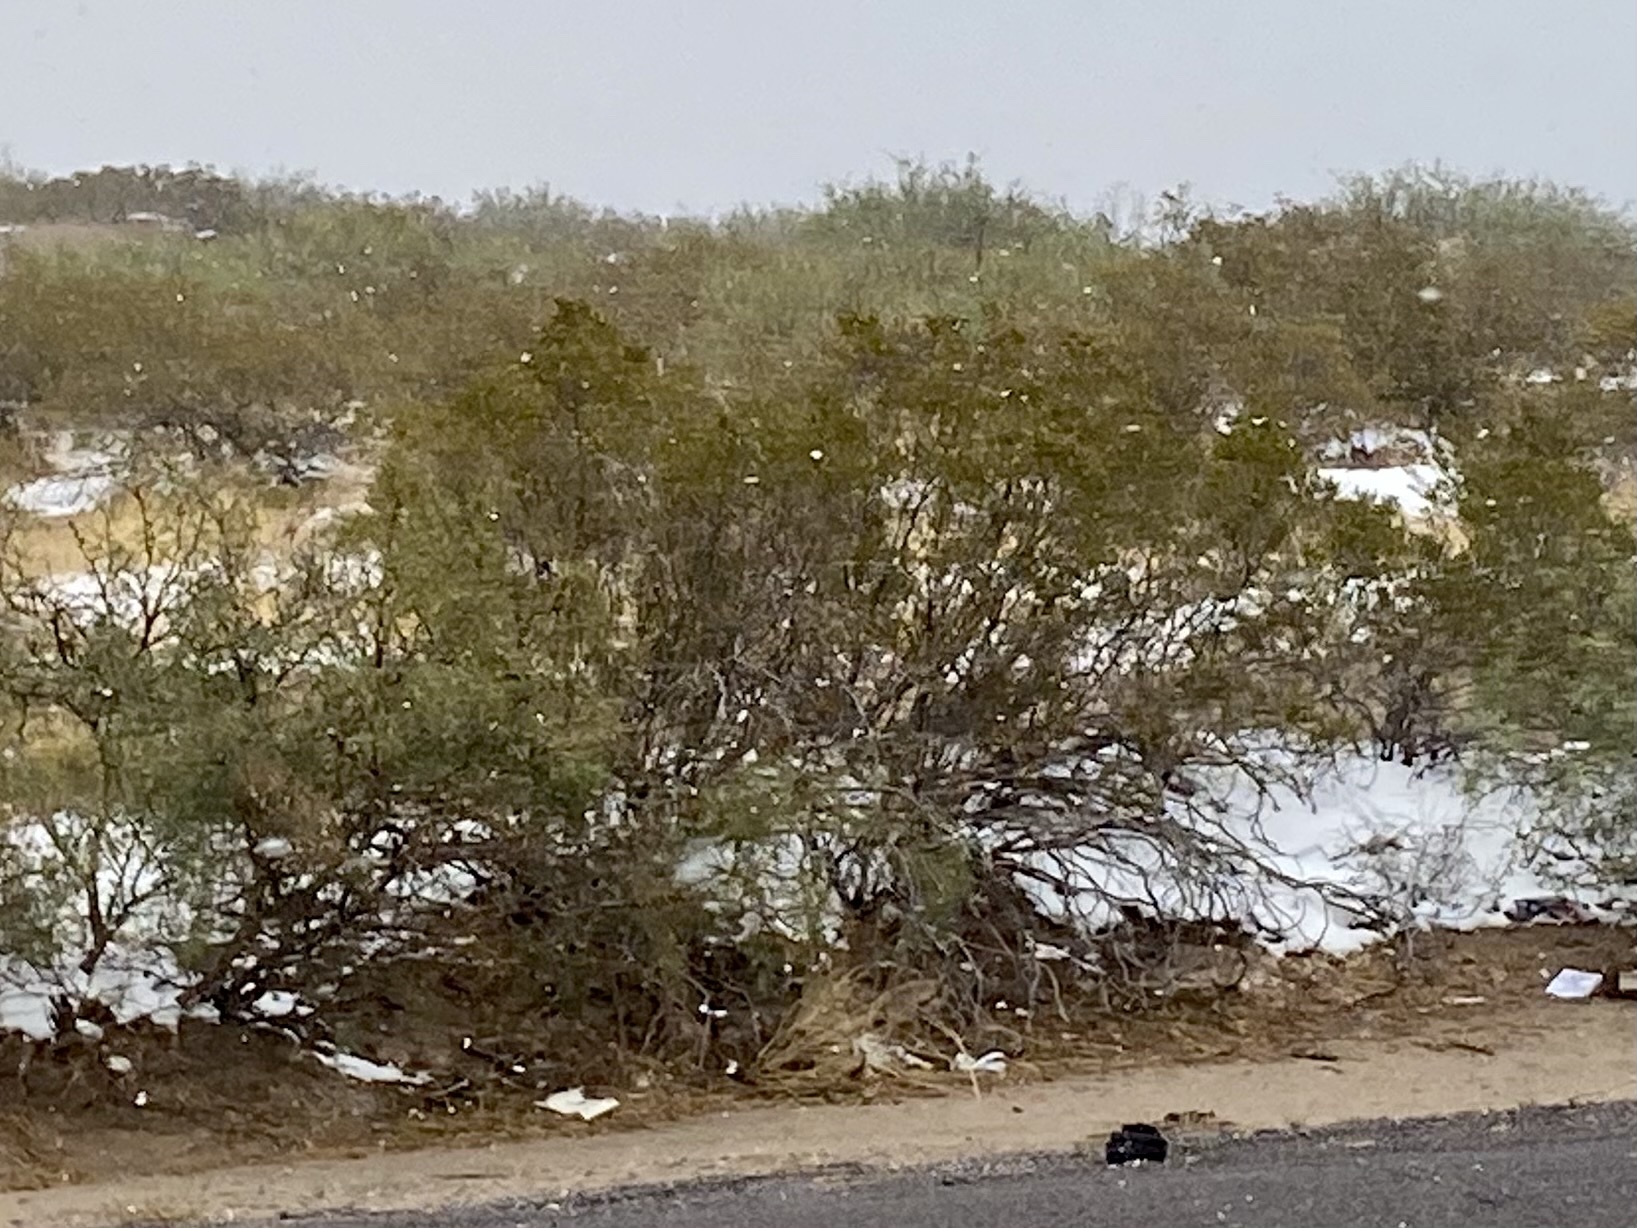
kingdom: Plantae
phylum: Tracheophyta
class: Magnoliopsida
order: Zygophyllales
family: Zygophyllaceae
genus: Larrea
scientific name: Larrea tridentata
